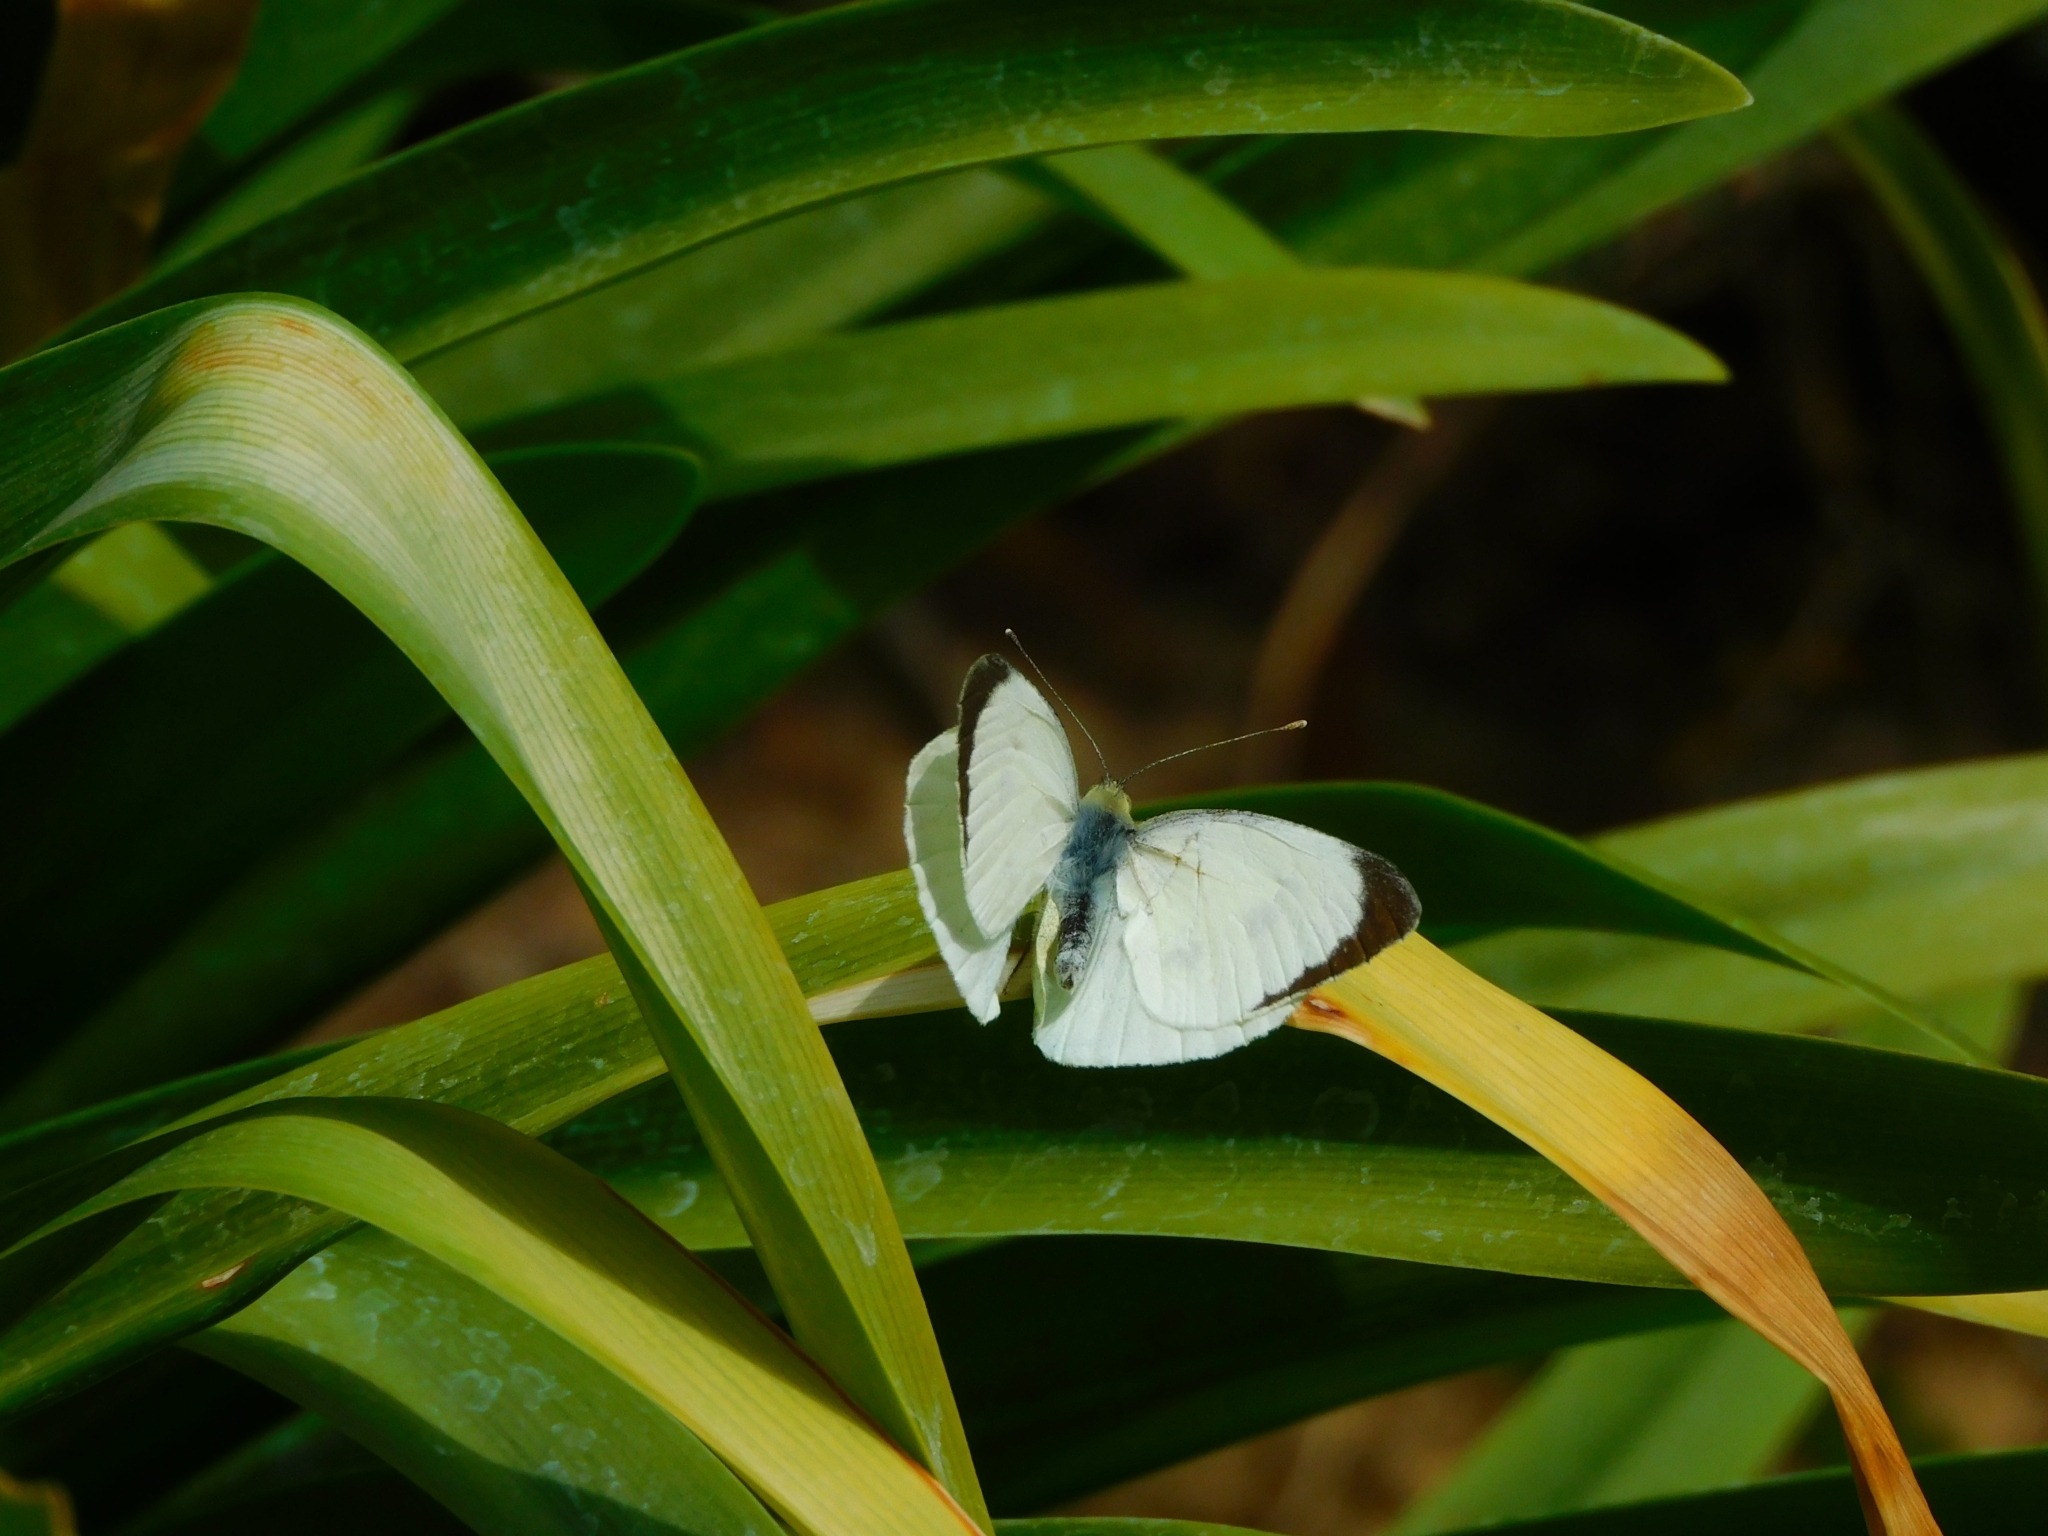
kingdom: Animalia
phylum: Arthropoda
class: Insecta
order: Lepidoptera
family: Pieridae
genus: Pieris
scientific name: Pieris brassicae
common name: Large white
